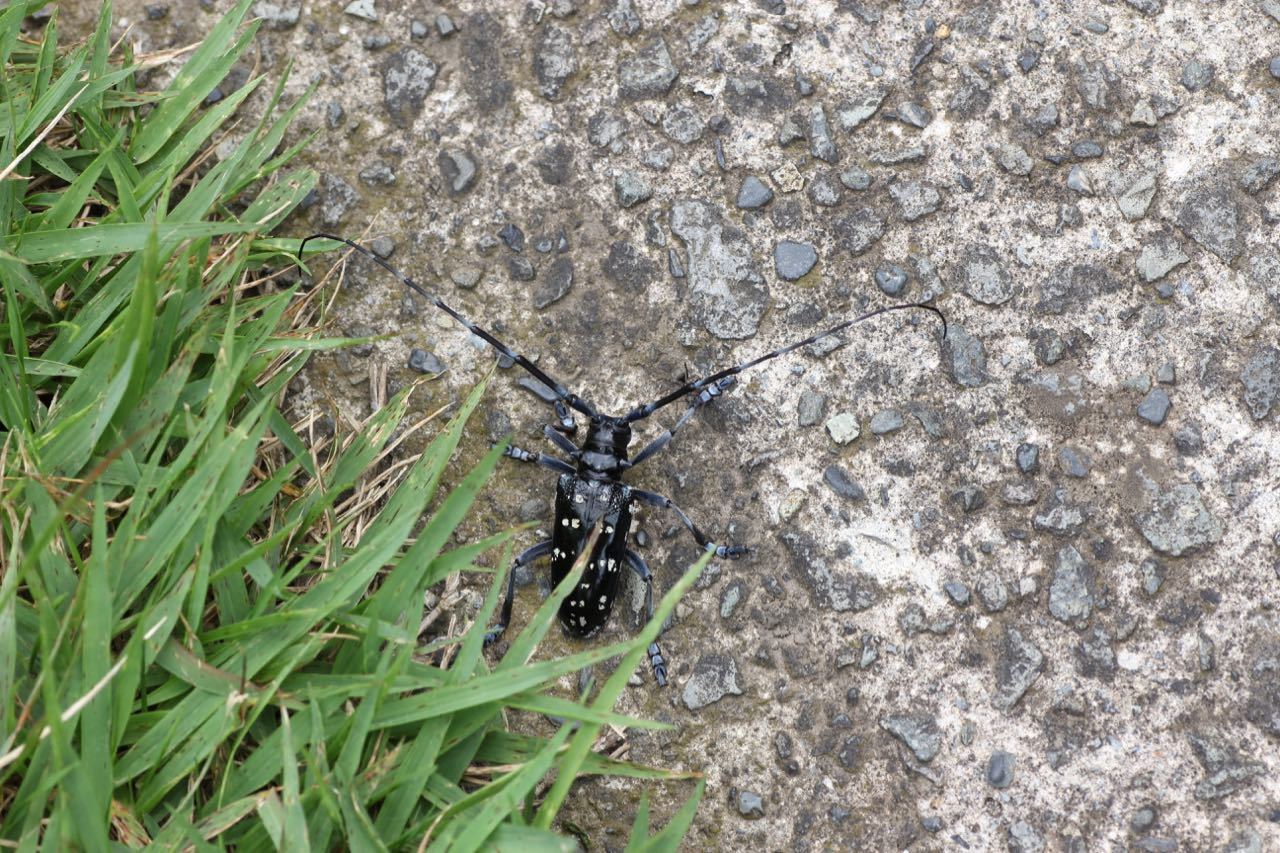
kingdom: Animalia
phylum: Arthropoda
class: Insecta
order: Coleoptera
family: Cerambycidae
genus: Anoplophora
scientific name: Anoplophora chinensis
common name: Citrus longhorned beetle
